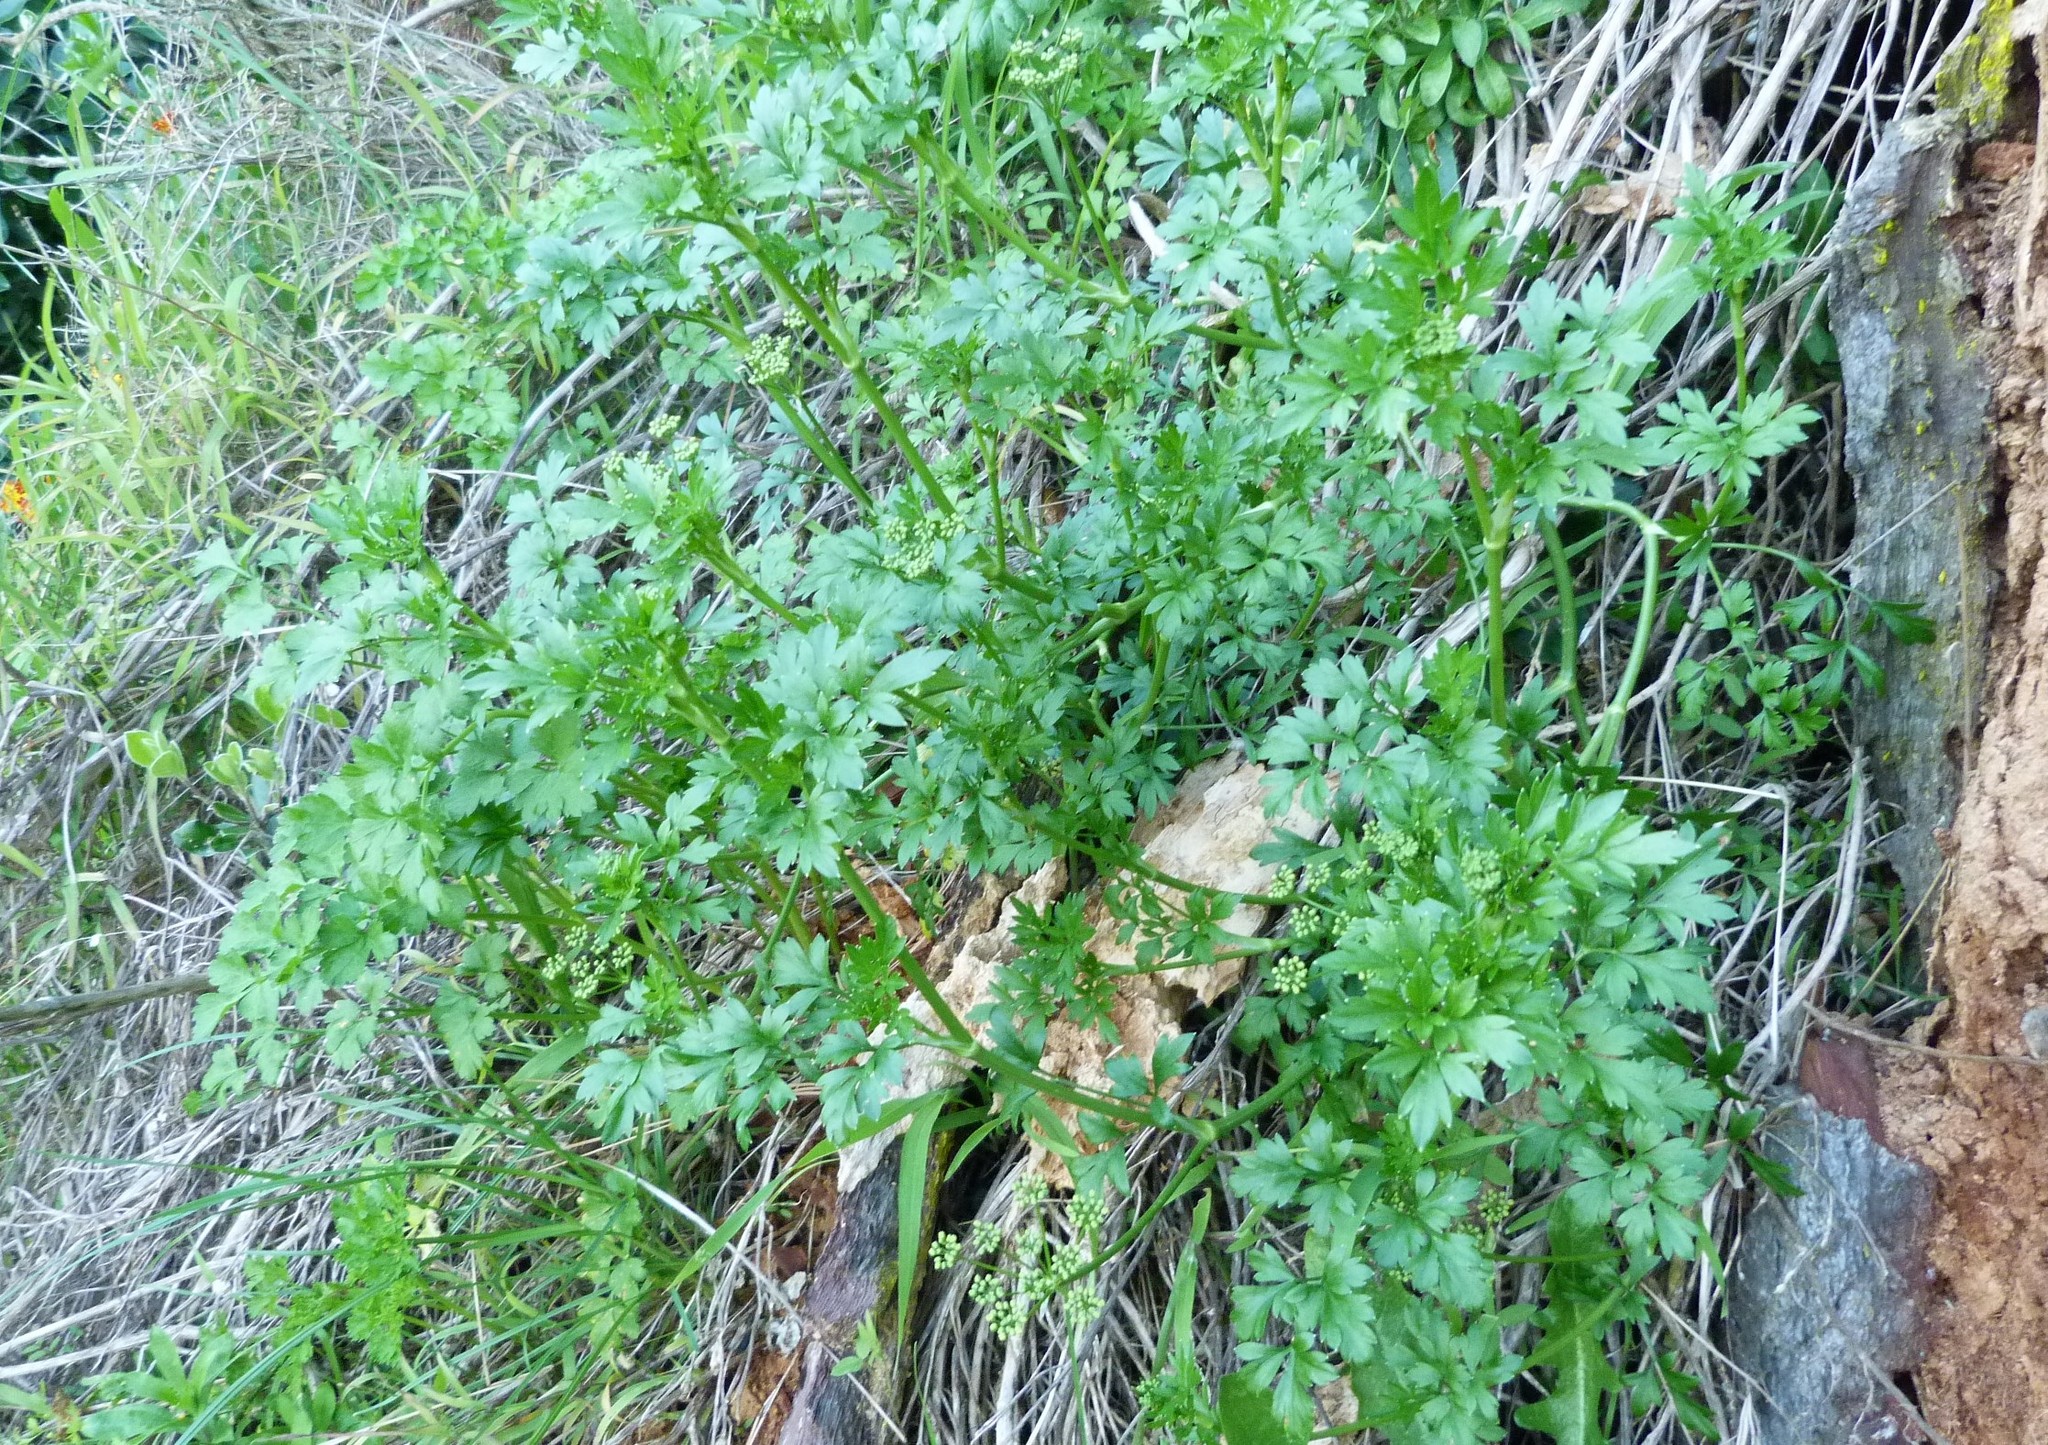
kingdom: Plantae
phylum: Tracheophyta
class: Magnoliopsida
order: Apiales
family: Apiaceae
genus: Petroselinum
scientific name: Petroselinum crispum
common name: Parsley
